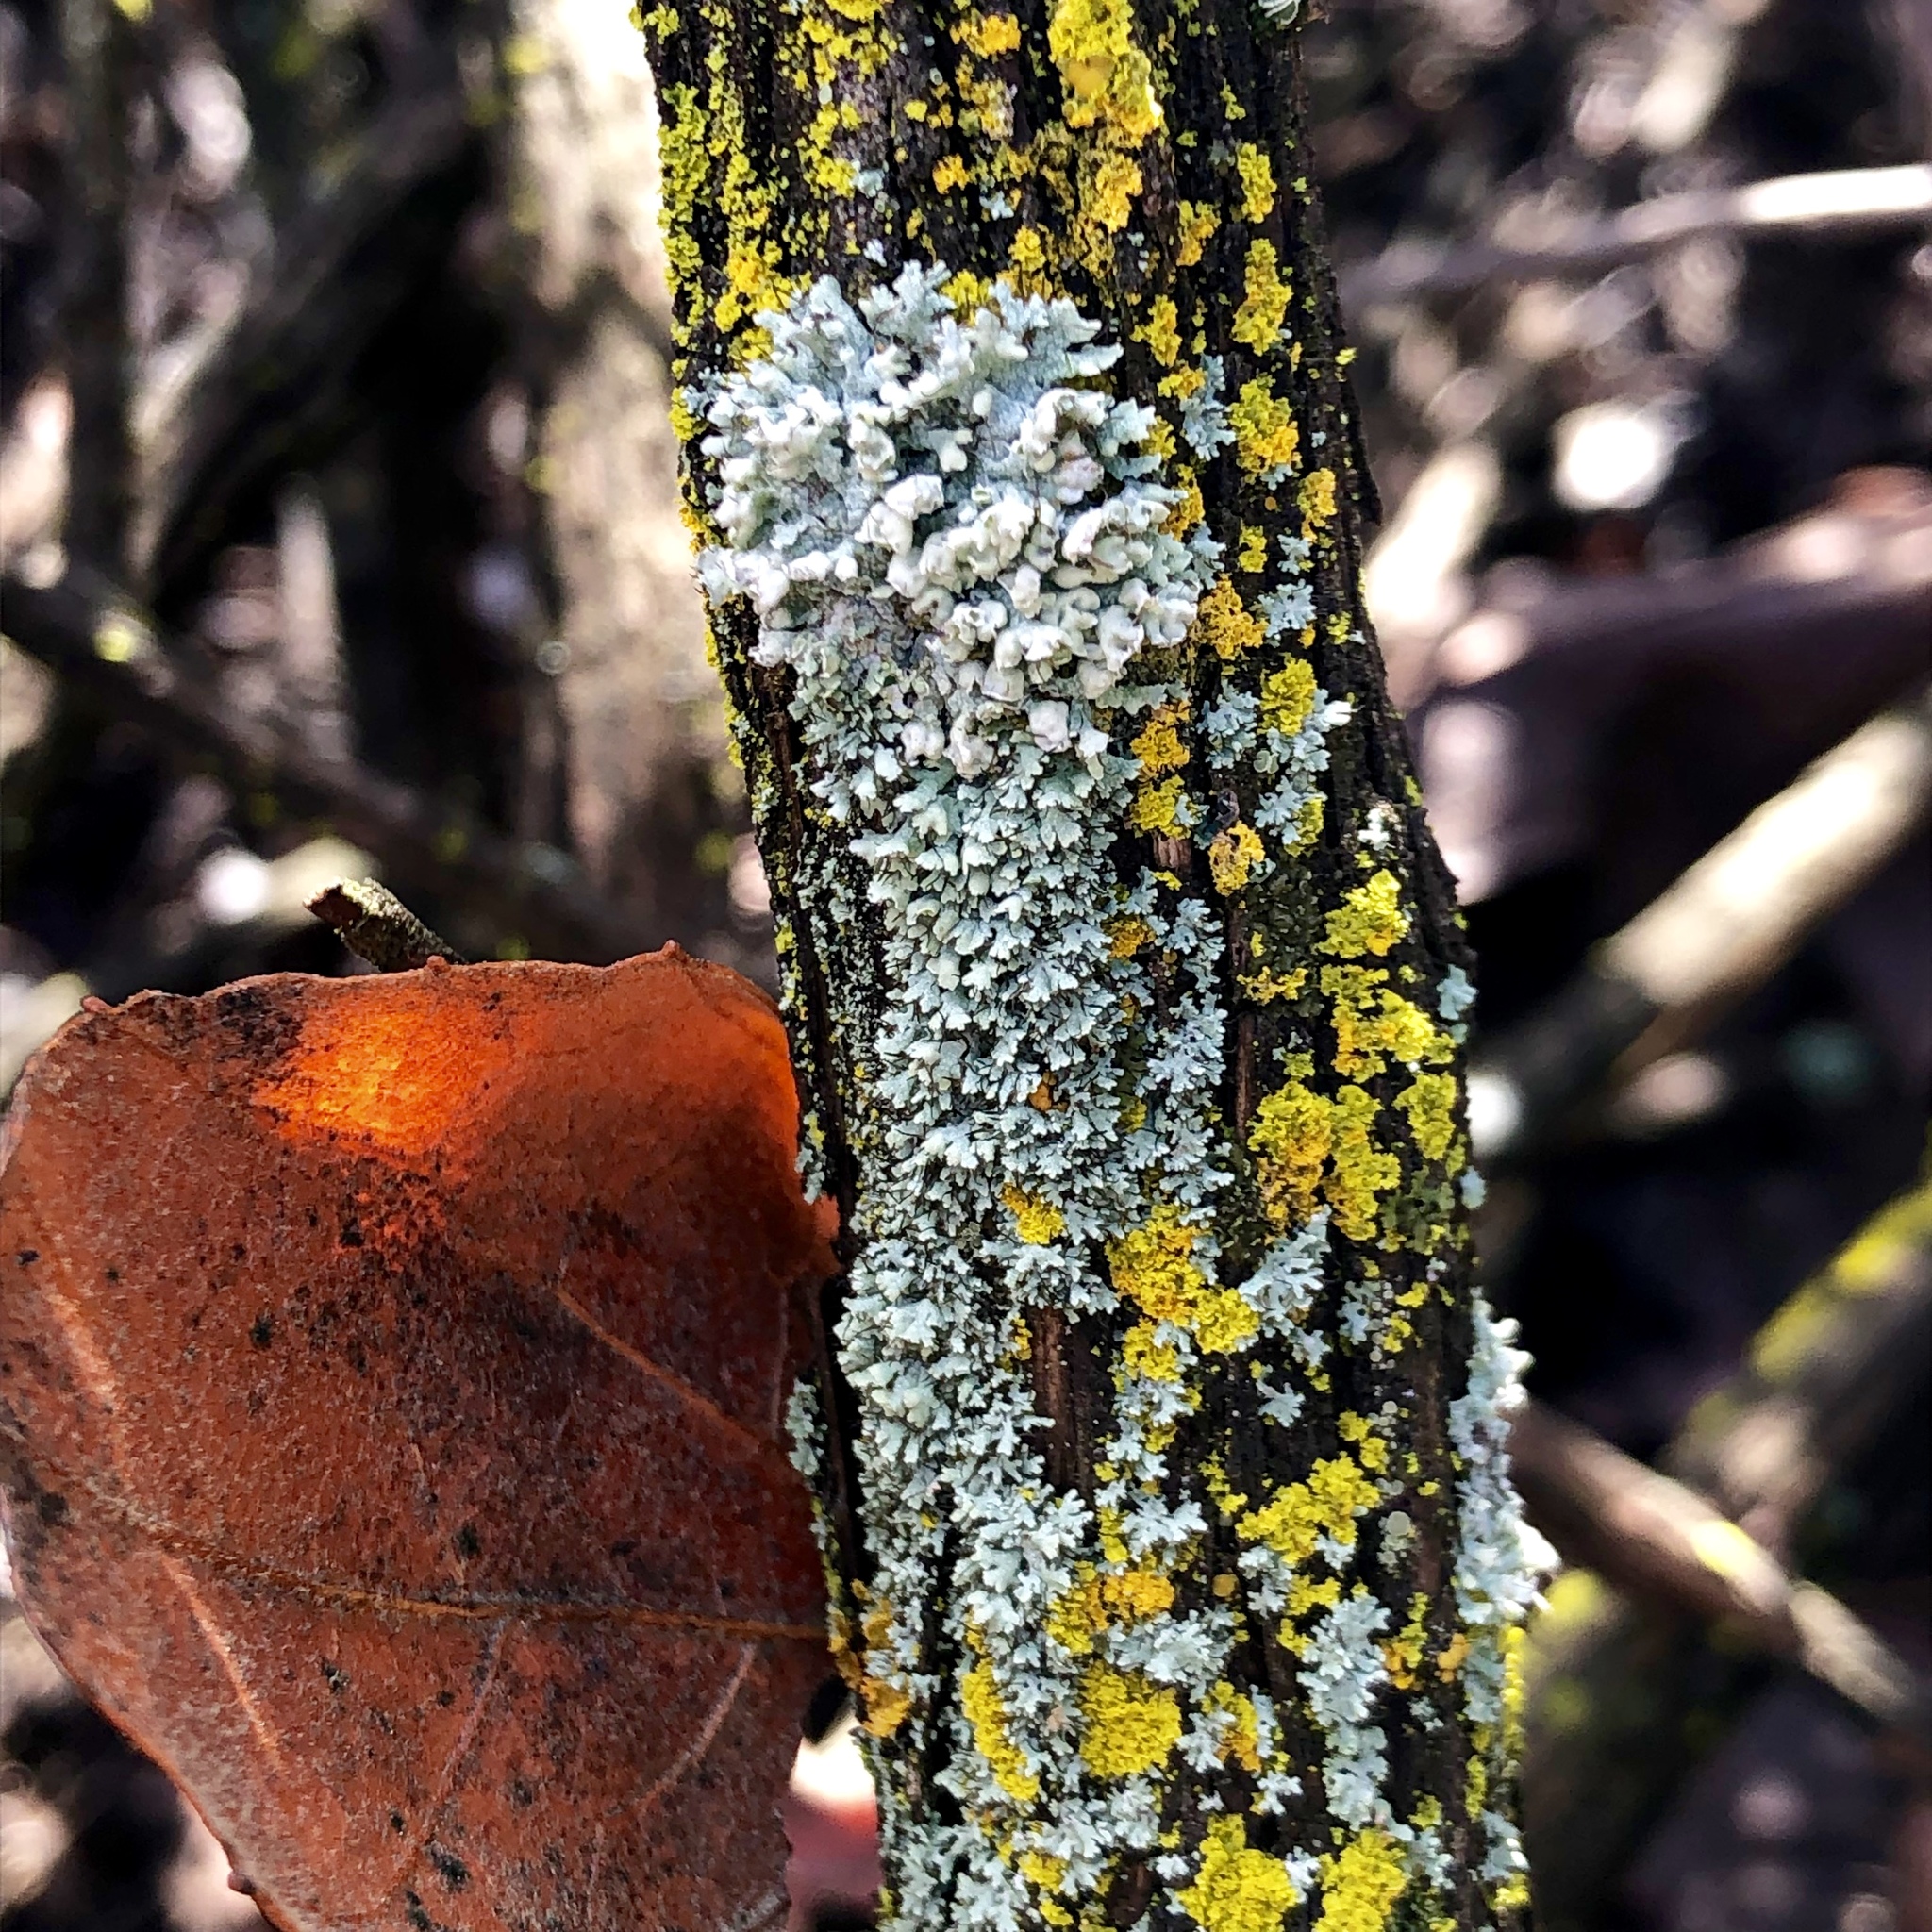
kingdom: Fungi
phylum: Ascomycota
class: Lecanoromycetes
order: Caliciales
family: Physciaceae
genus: Physcia
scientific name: Physcia adscendens
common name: Hooded rosette lichen
